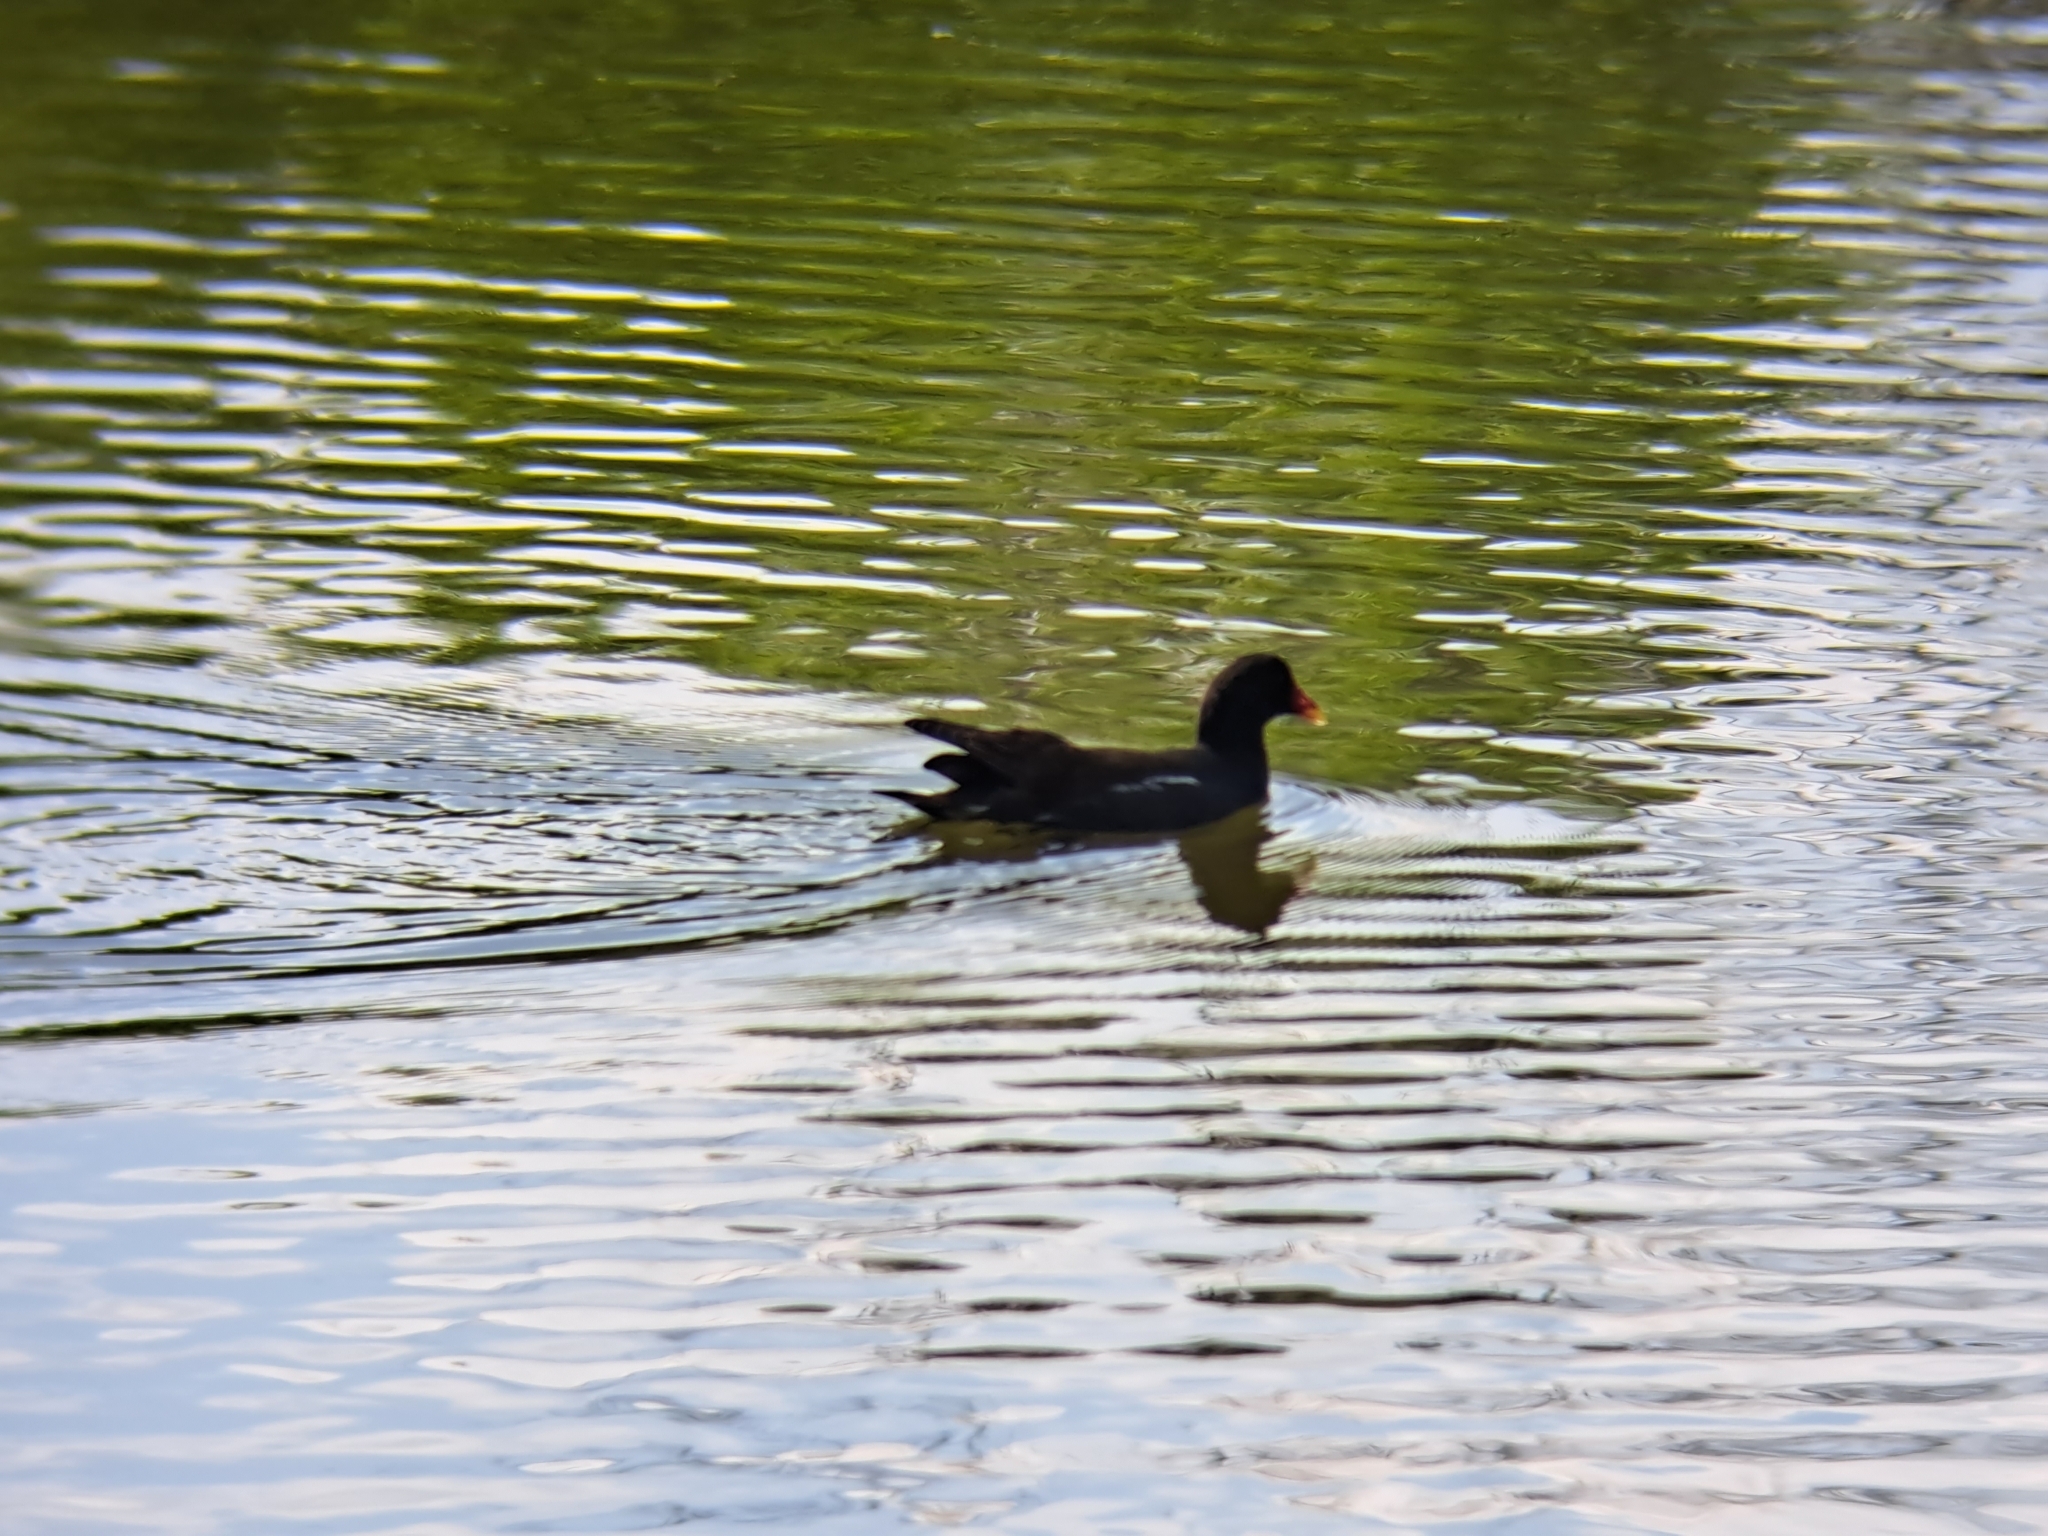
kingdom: Animalia
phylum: Chordata
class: Aves
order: Gruiformes
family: Rallidae
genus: Gallinula
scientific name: Gallinula chloropus
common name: Common moorhen
